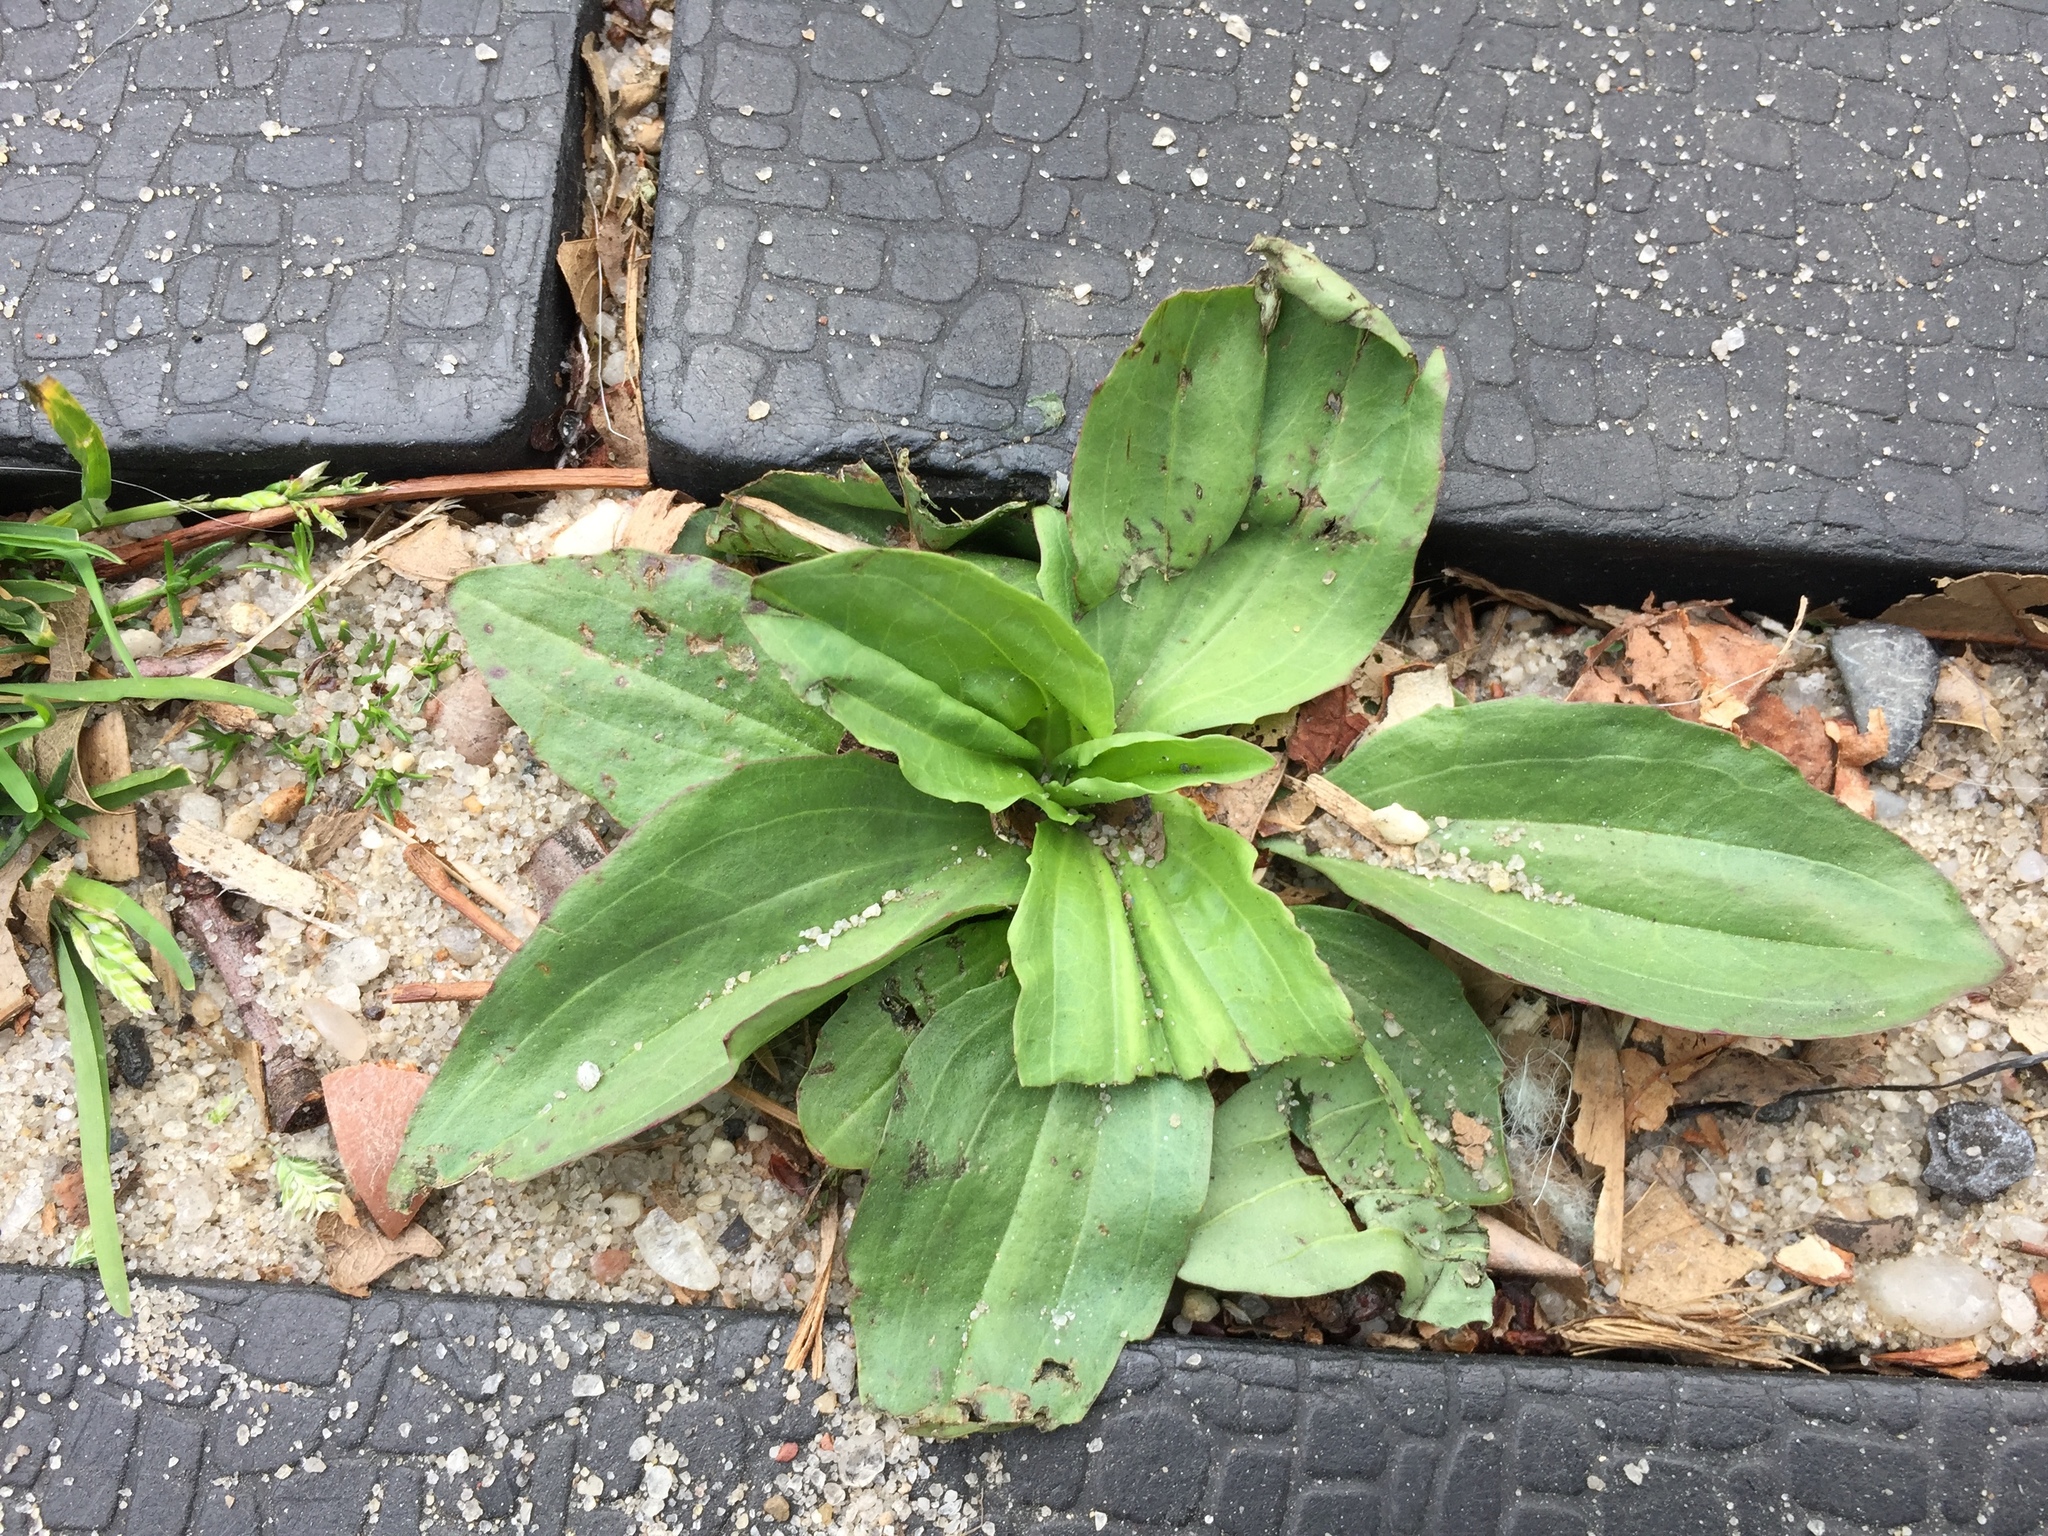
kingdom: Plantae
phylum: Tracheophyta
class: Magnoliopsida
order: Lamiales
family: Plantaginaceae
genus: Plantago
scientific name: Plantago major
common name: Common plantain
